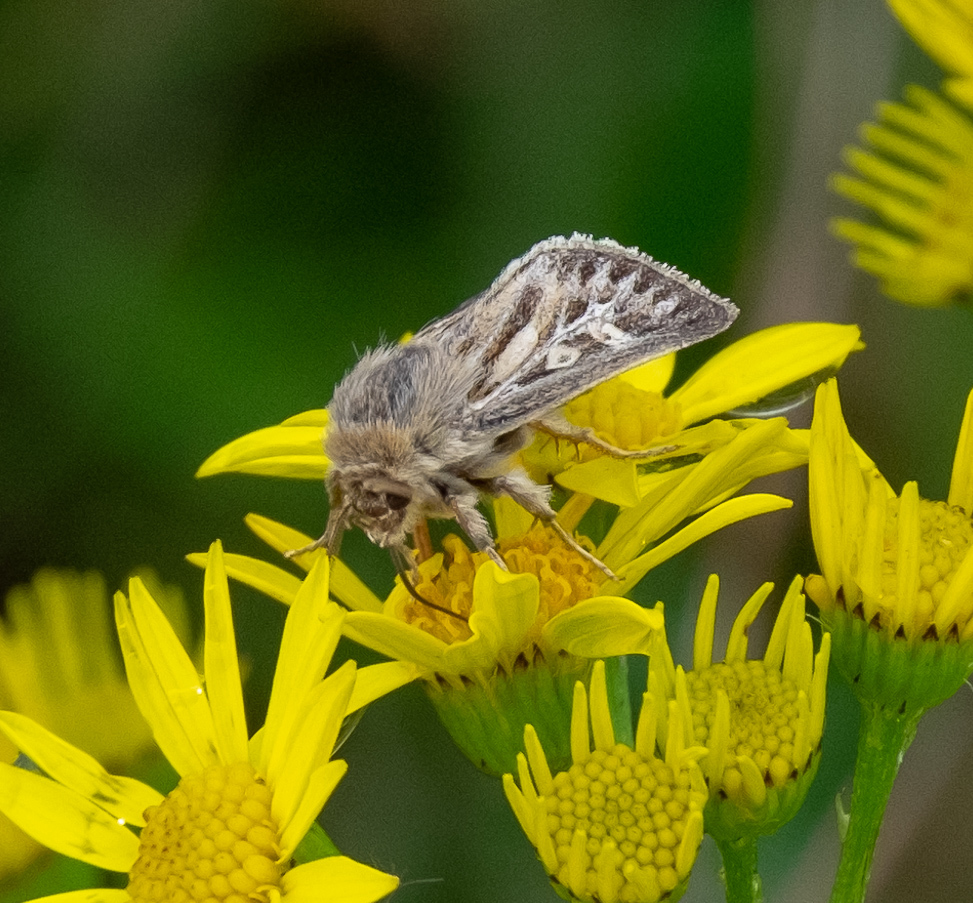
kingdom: Animalia
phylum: Arthropoda
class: Insecta
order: Lepidoptera
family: Noctuidae
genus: Cerapteryx
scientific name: Cerapteryx graminis
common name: Antler moth
